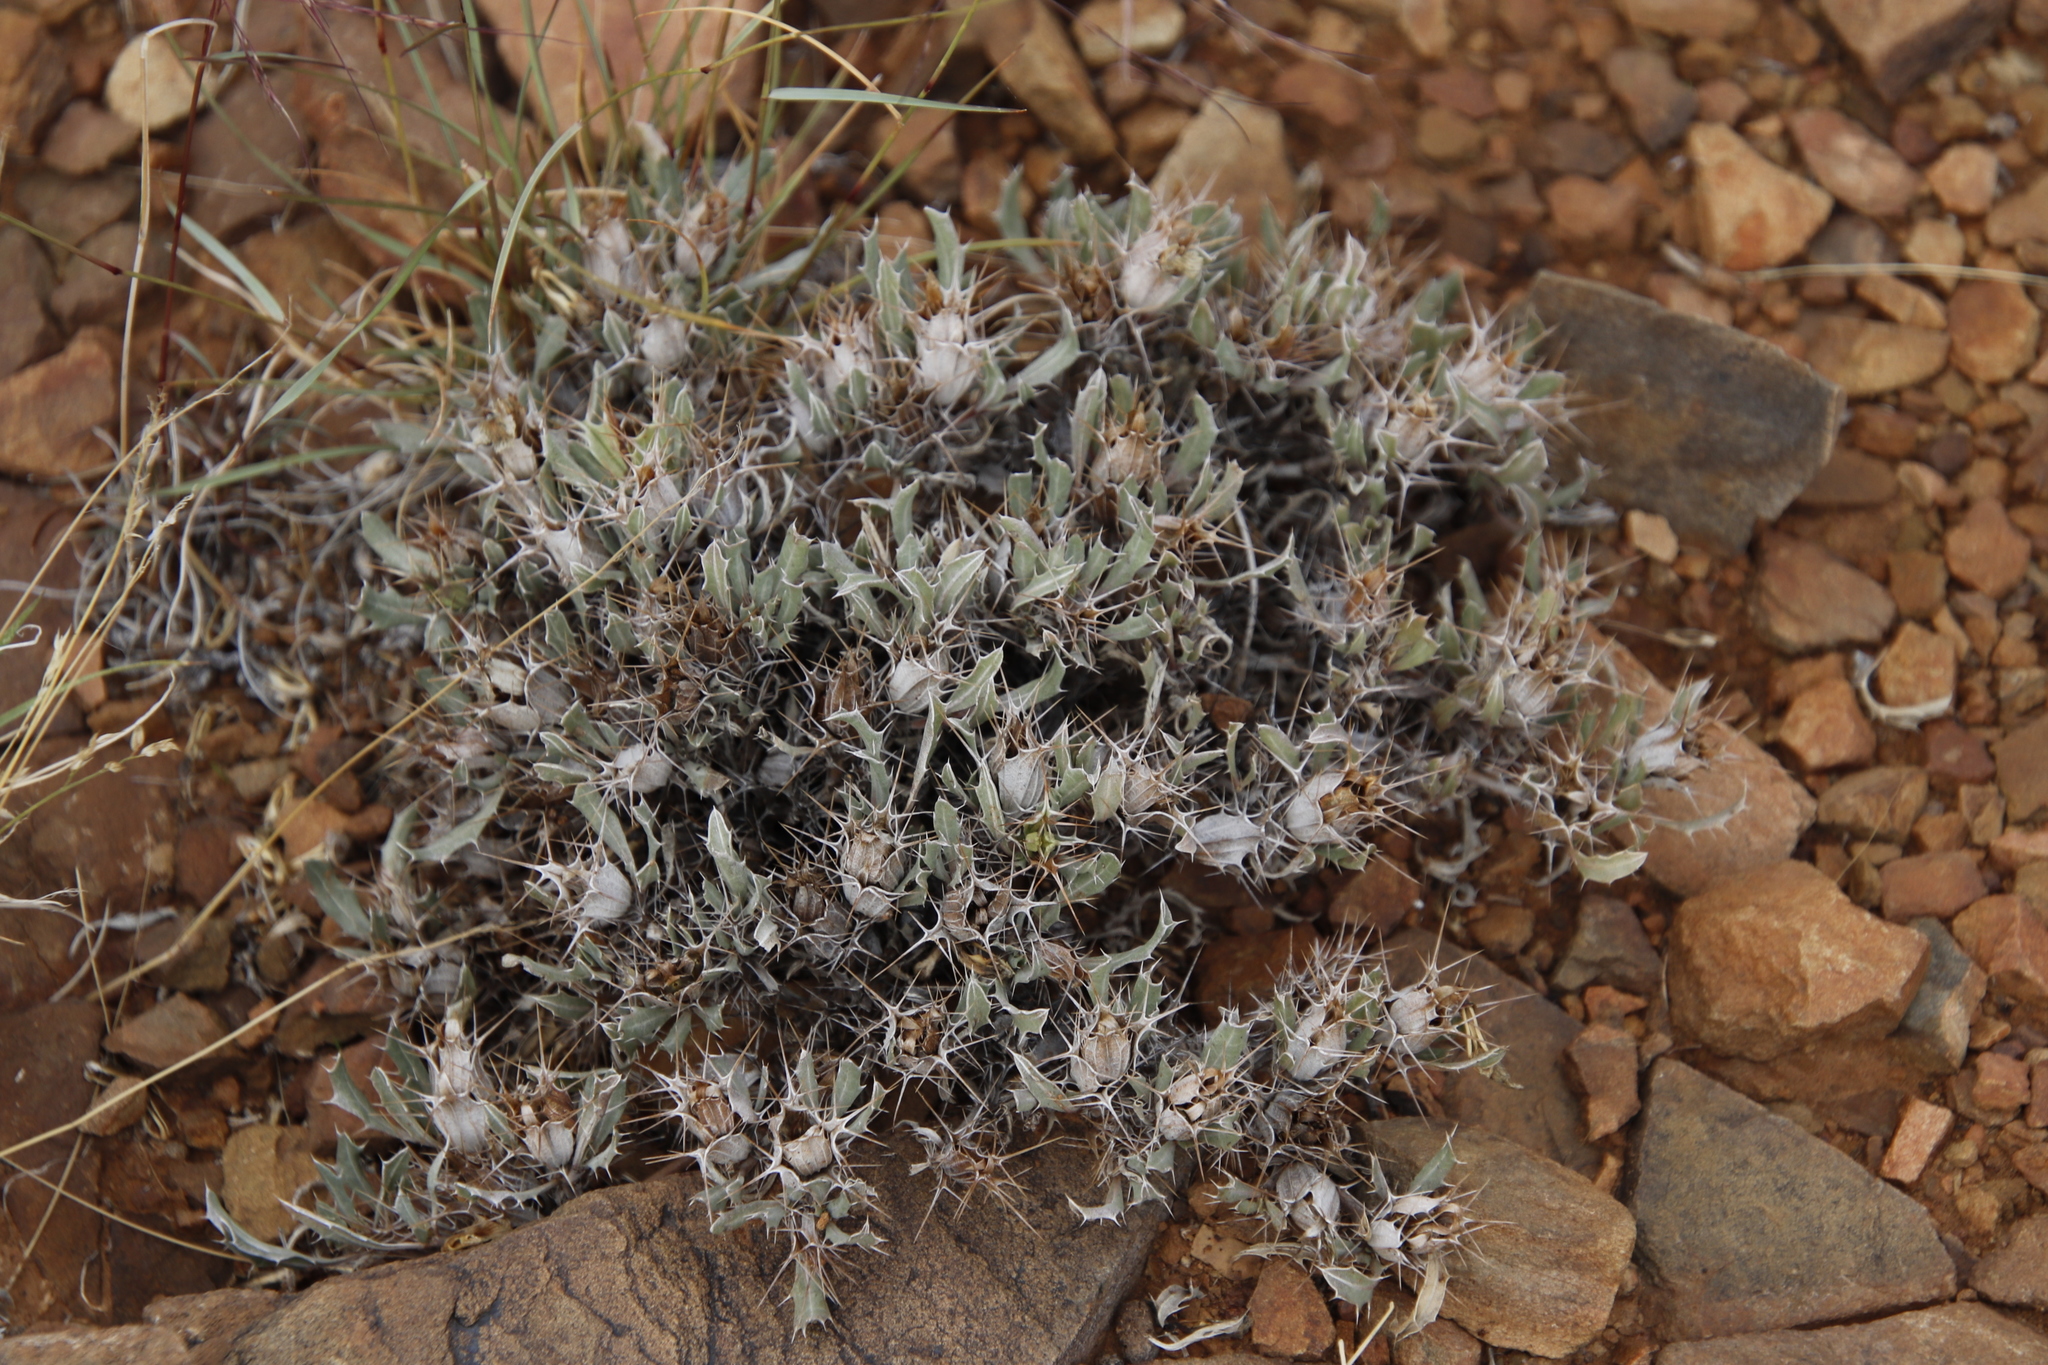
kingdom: Plantae
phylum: Tracheophyta
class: Magnoliopsida
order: Lamiales
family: Acanthaceae
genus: Blepharis
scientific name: Blepharis mitrata
